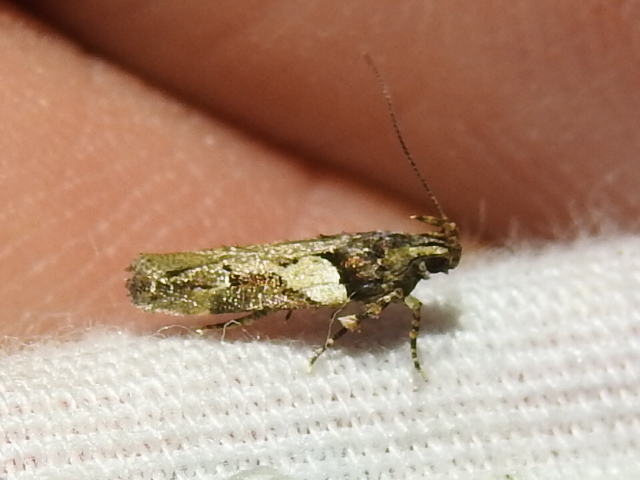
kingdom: Animalia
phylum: Arthropoda
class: Insecta
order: Lepidoptera
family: Gelechiidae
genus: Friseria
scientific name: Friseria acaciella
